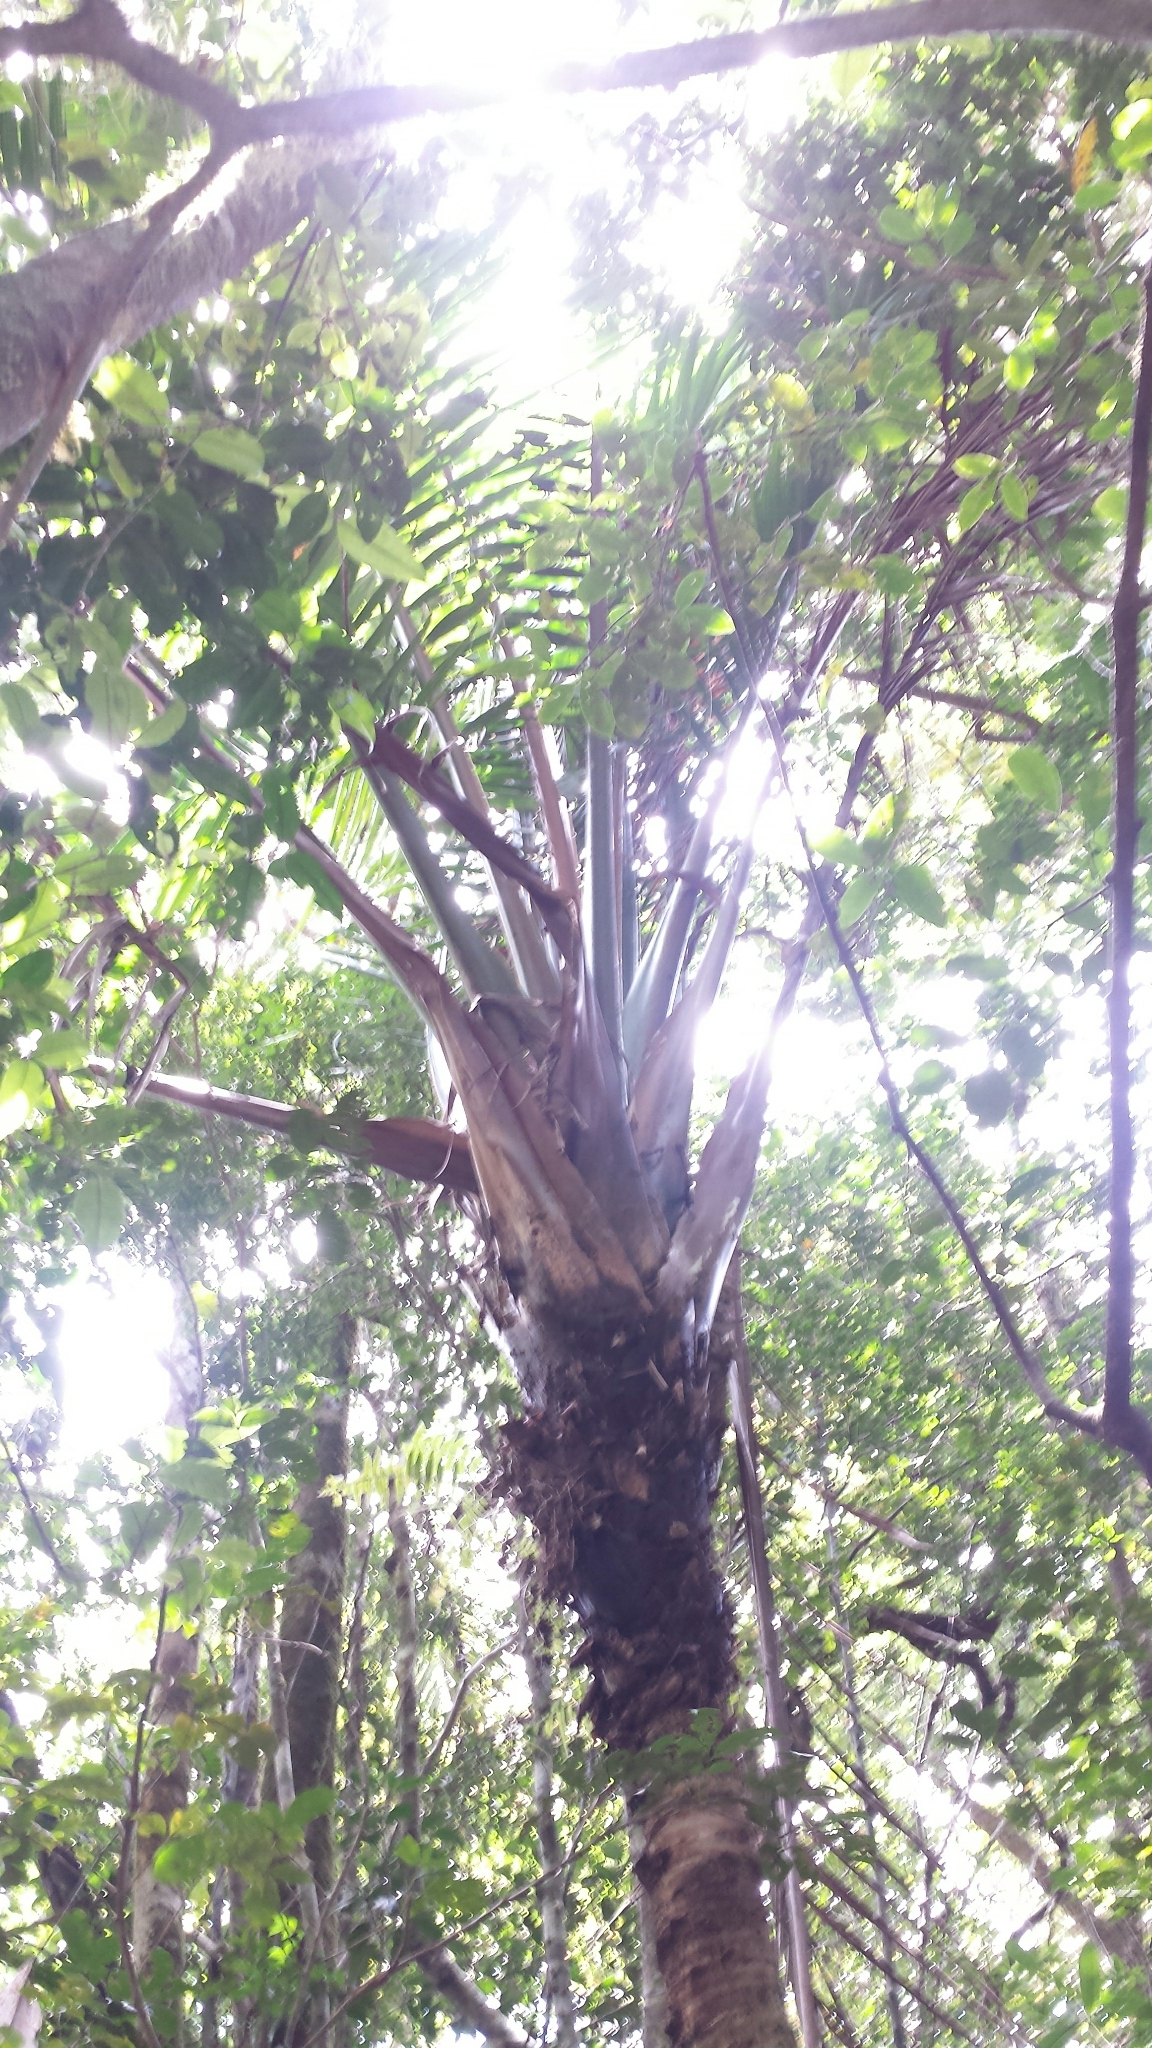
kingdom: Plantae
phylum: Tracheophyta
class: Liliopsida
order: Arecales
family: Arecaceae
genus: Masoala
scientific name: Masoala madagascariensis
